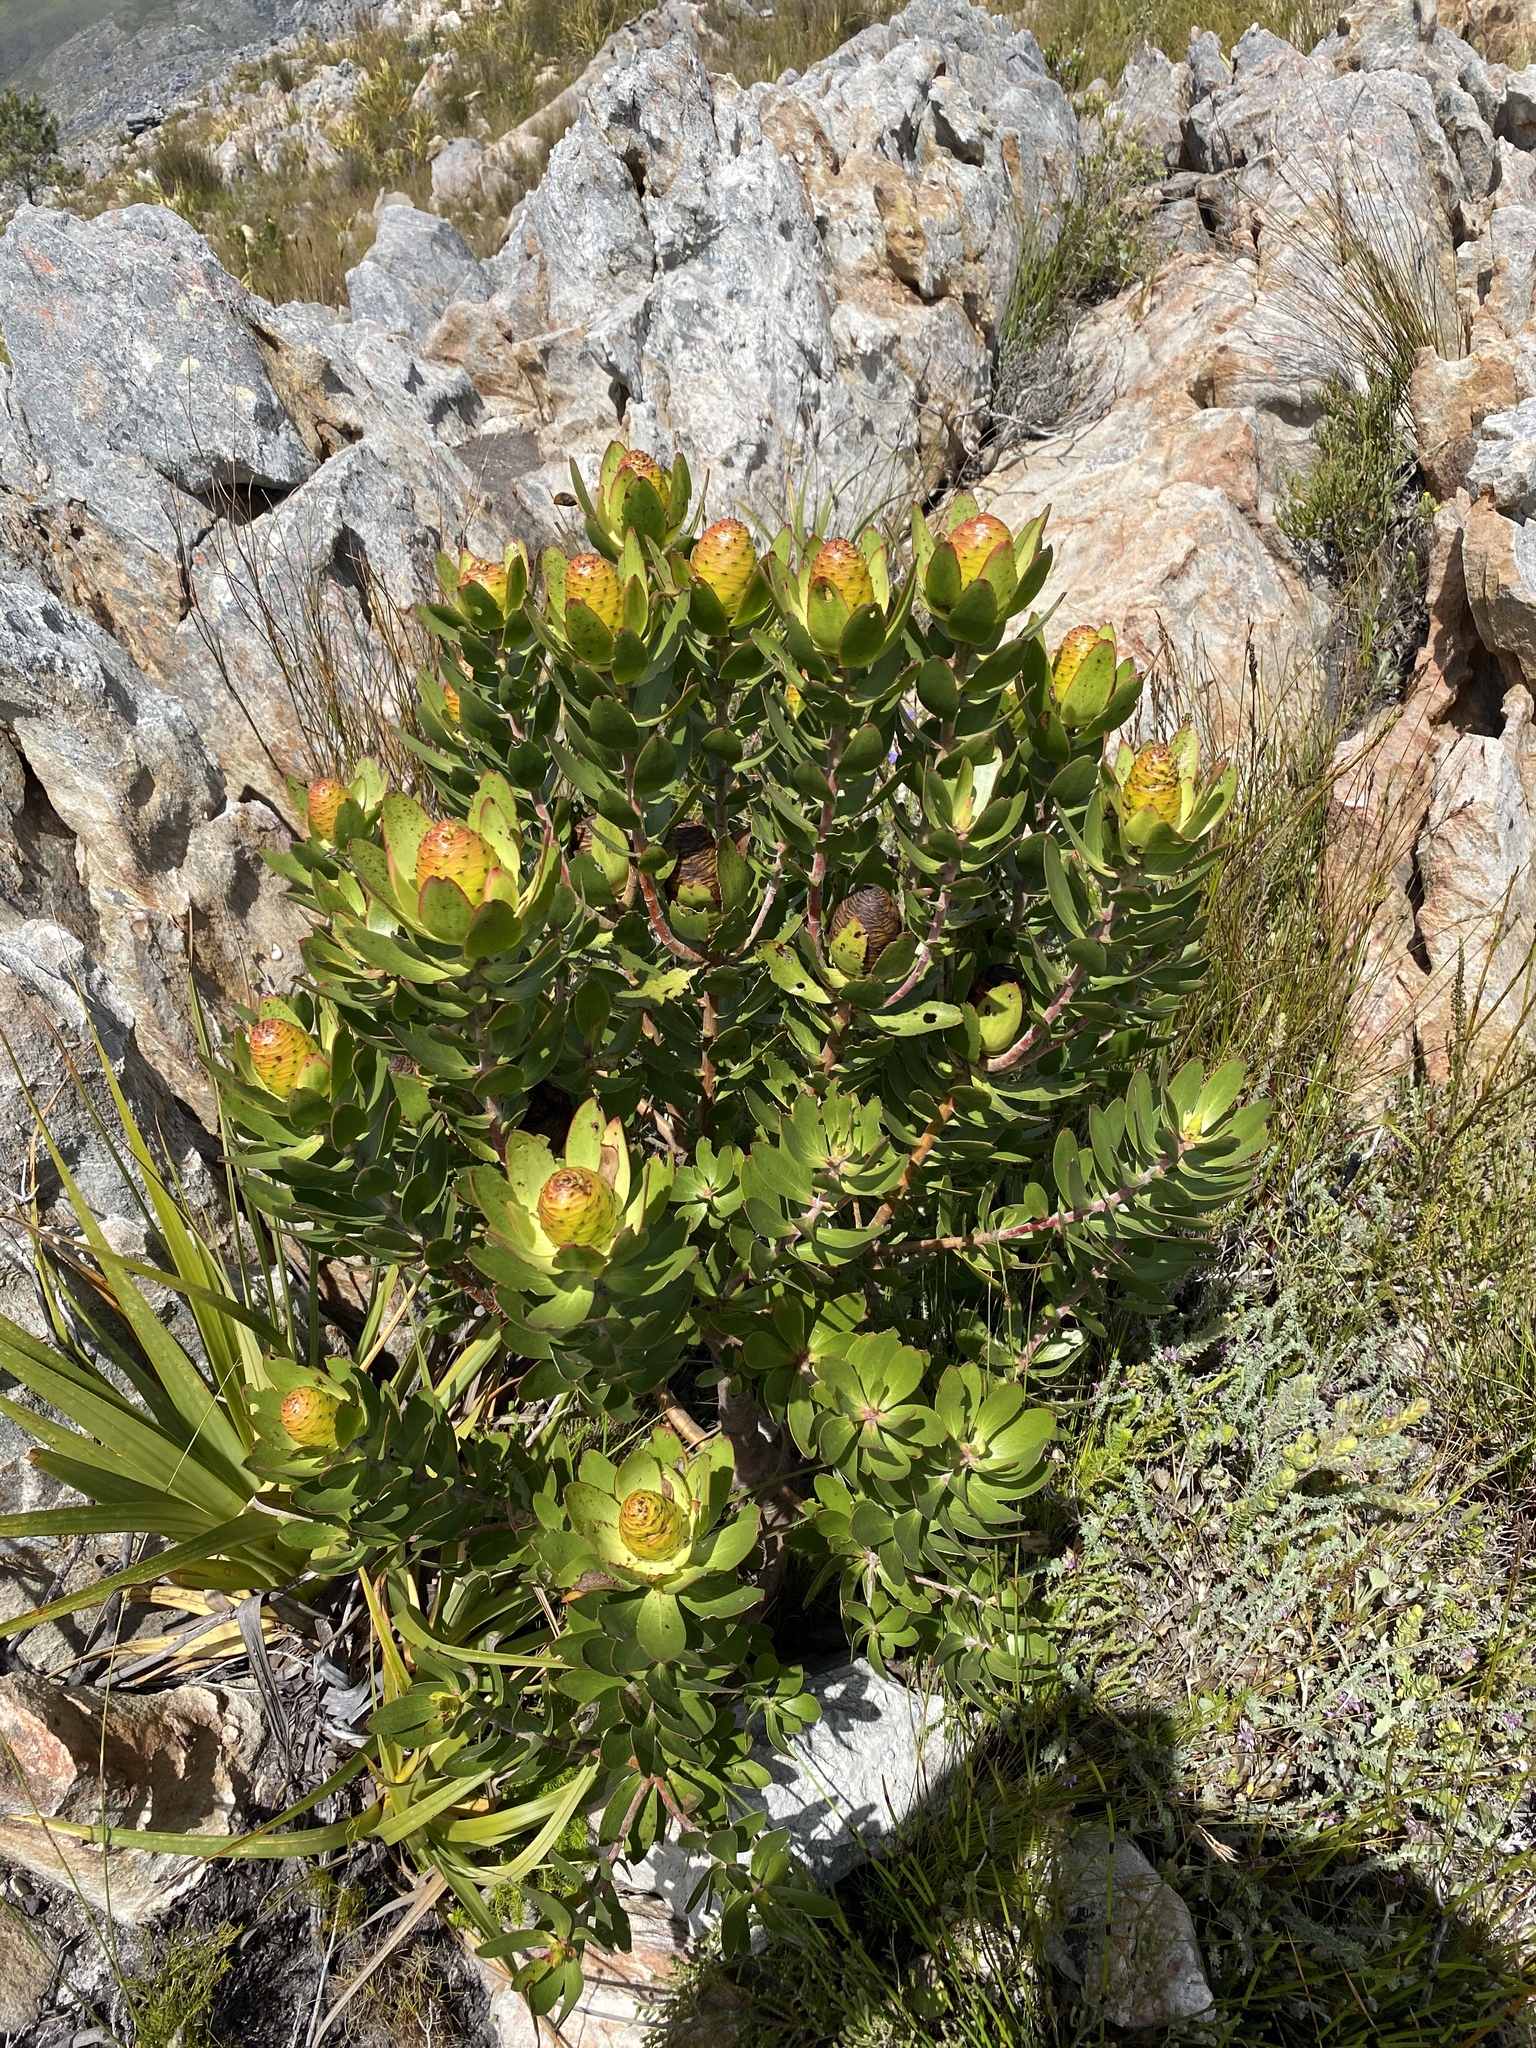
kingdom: Plantae
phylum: Tracheophyta
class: Magnoliopsida
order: Proteales
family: Proteaceae
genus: Leucadendron
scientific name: Leucadendron gandogeri
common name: Broad-leaf conebush
